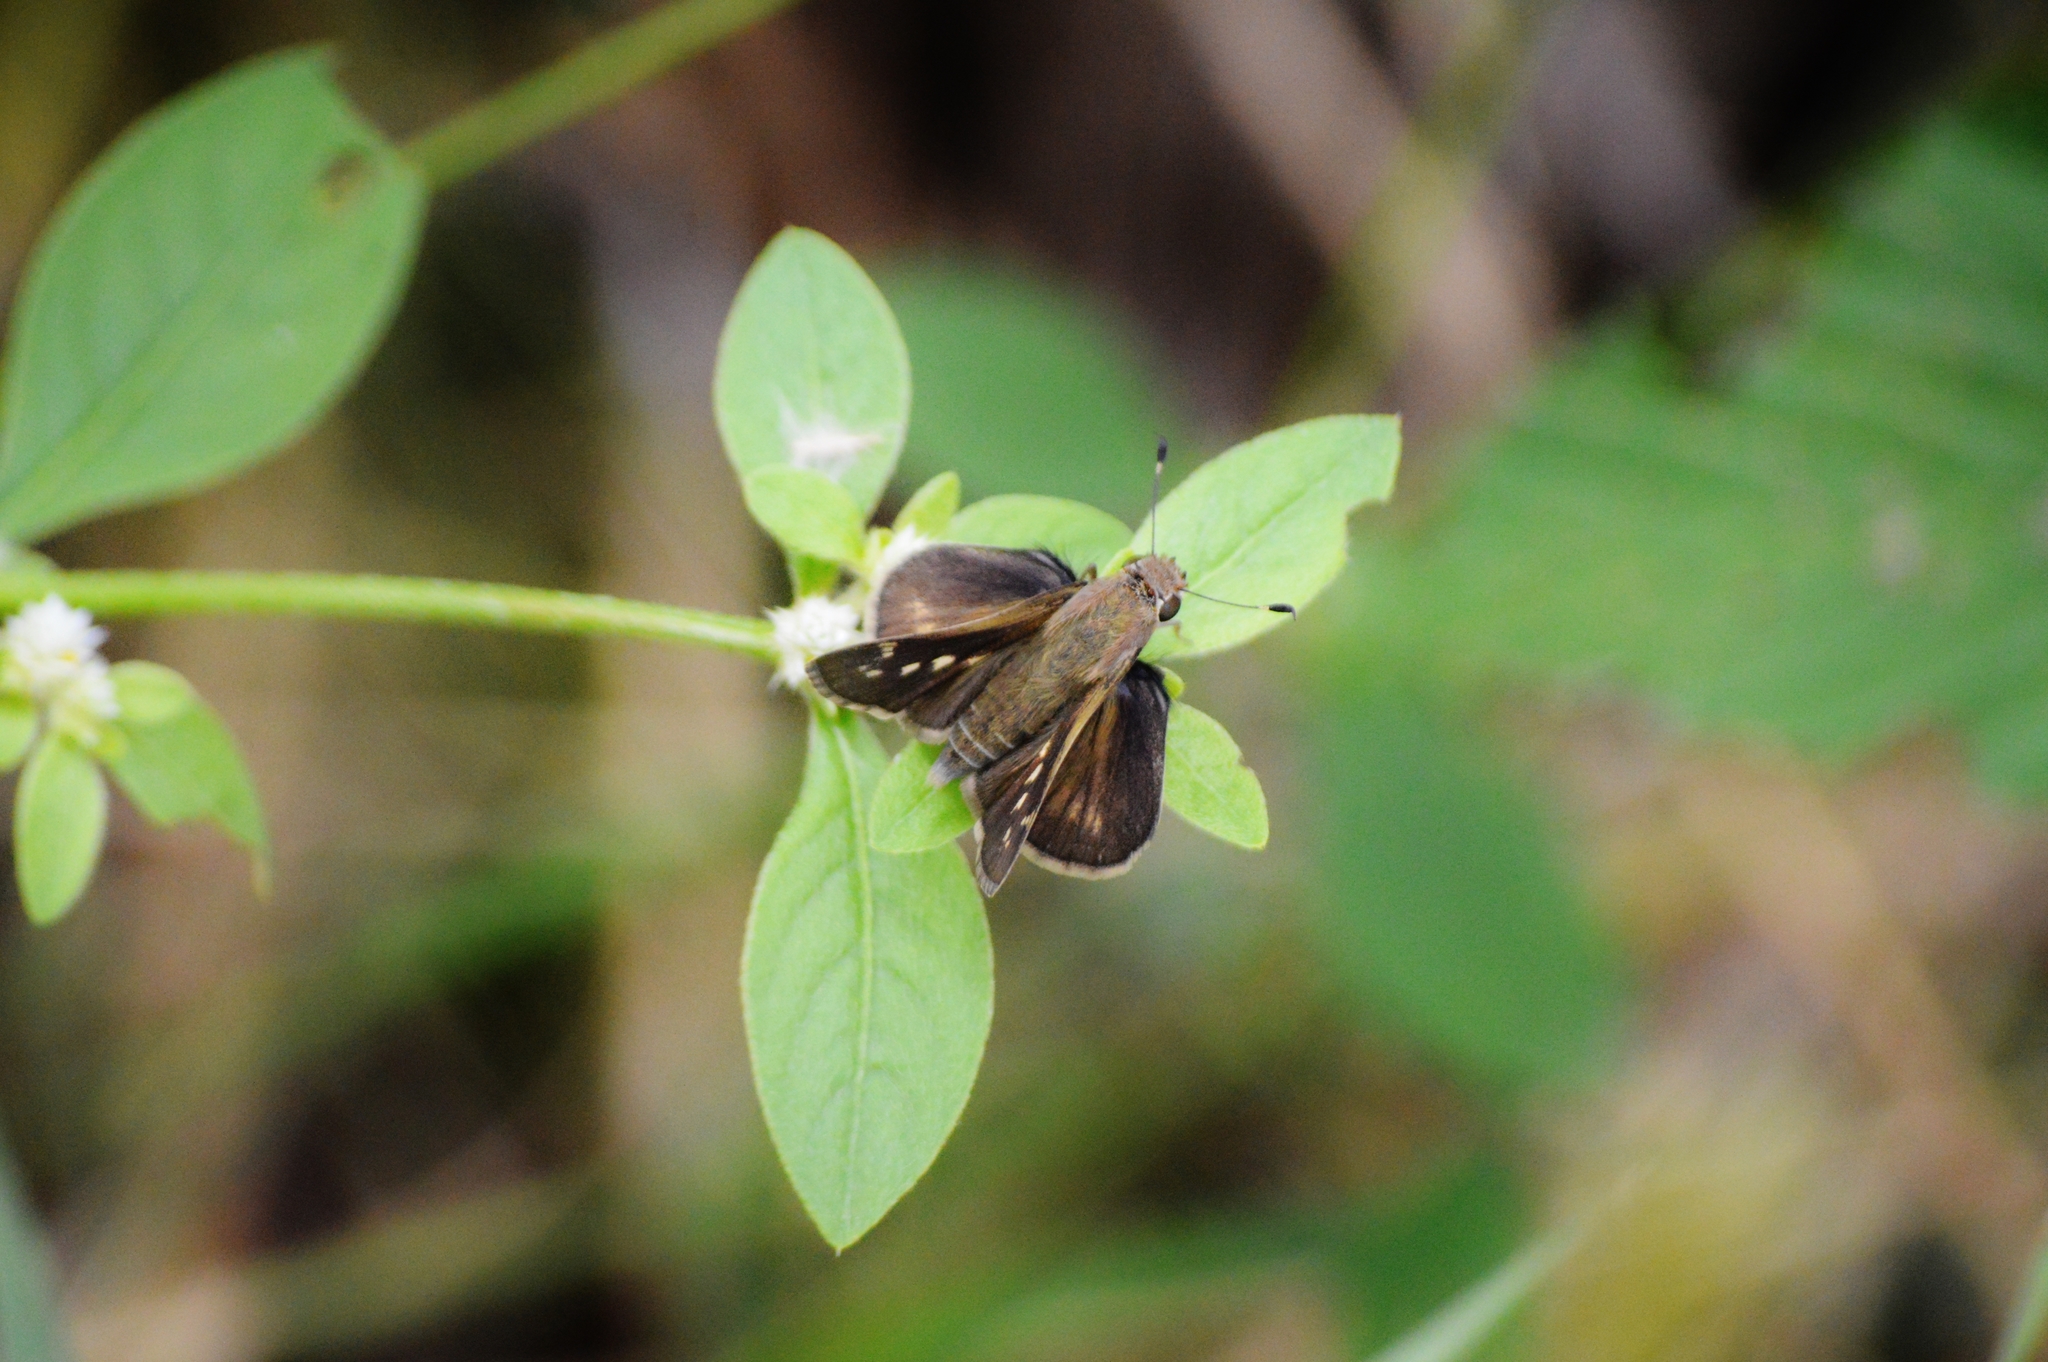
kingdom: Animalia
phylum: Arthropoda
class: Insecta
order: Lepidoptera
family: Hesperiidae
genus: Pompeius
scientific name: Pompeius pompeius
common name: Pompeius skipper
